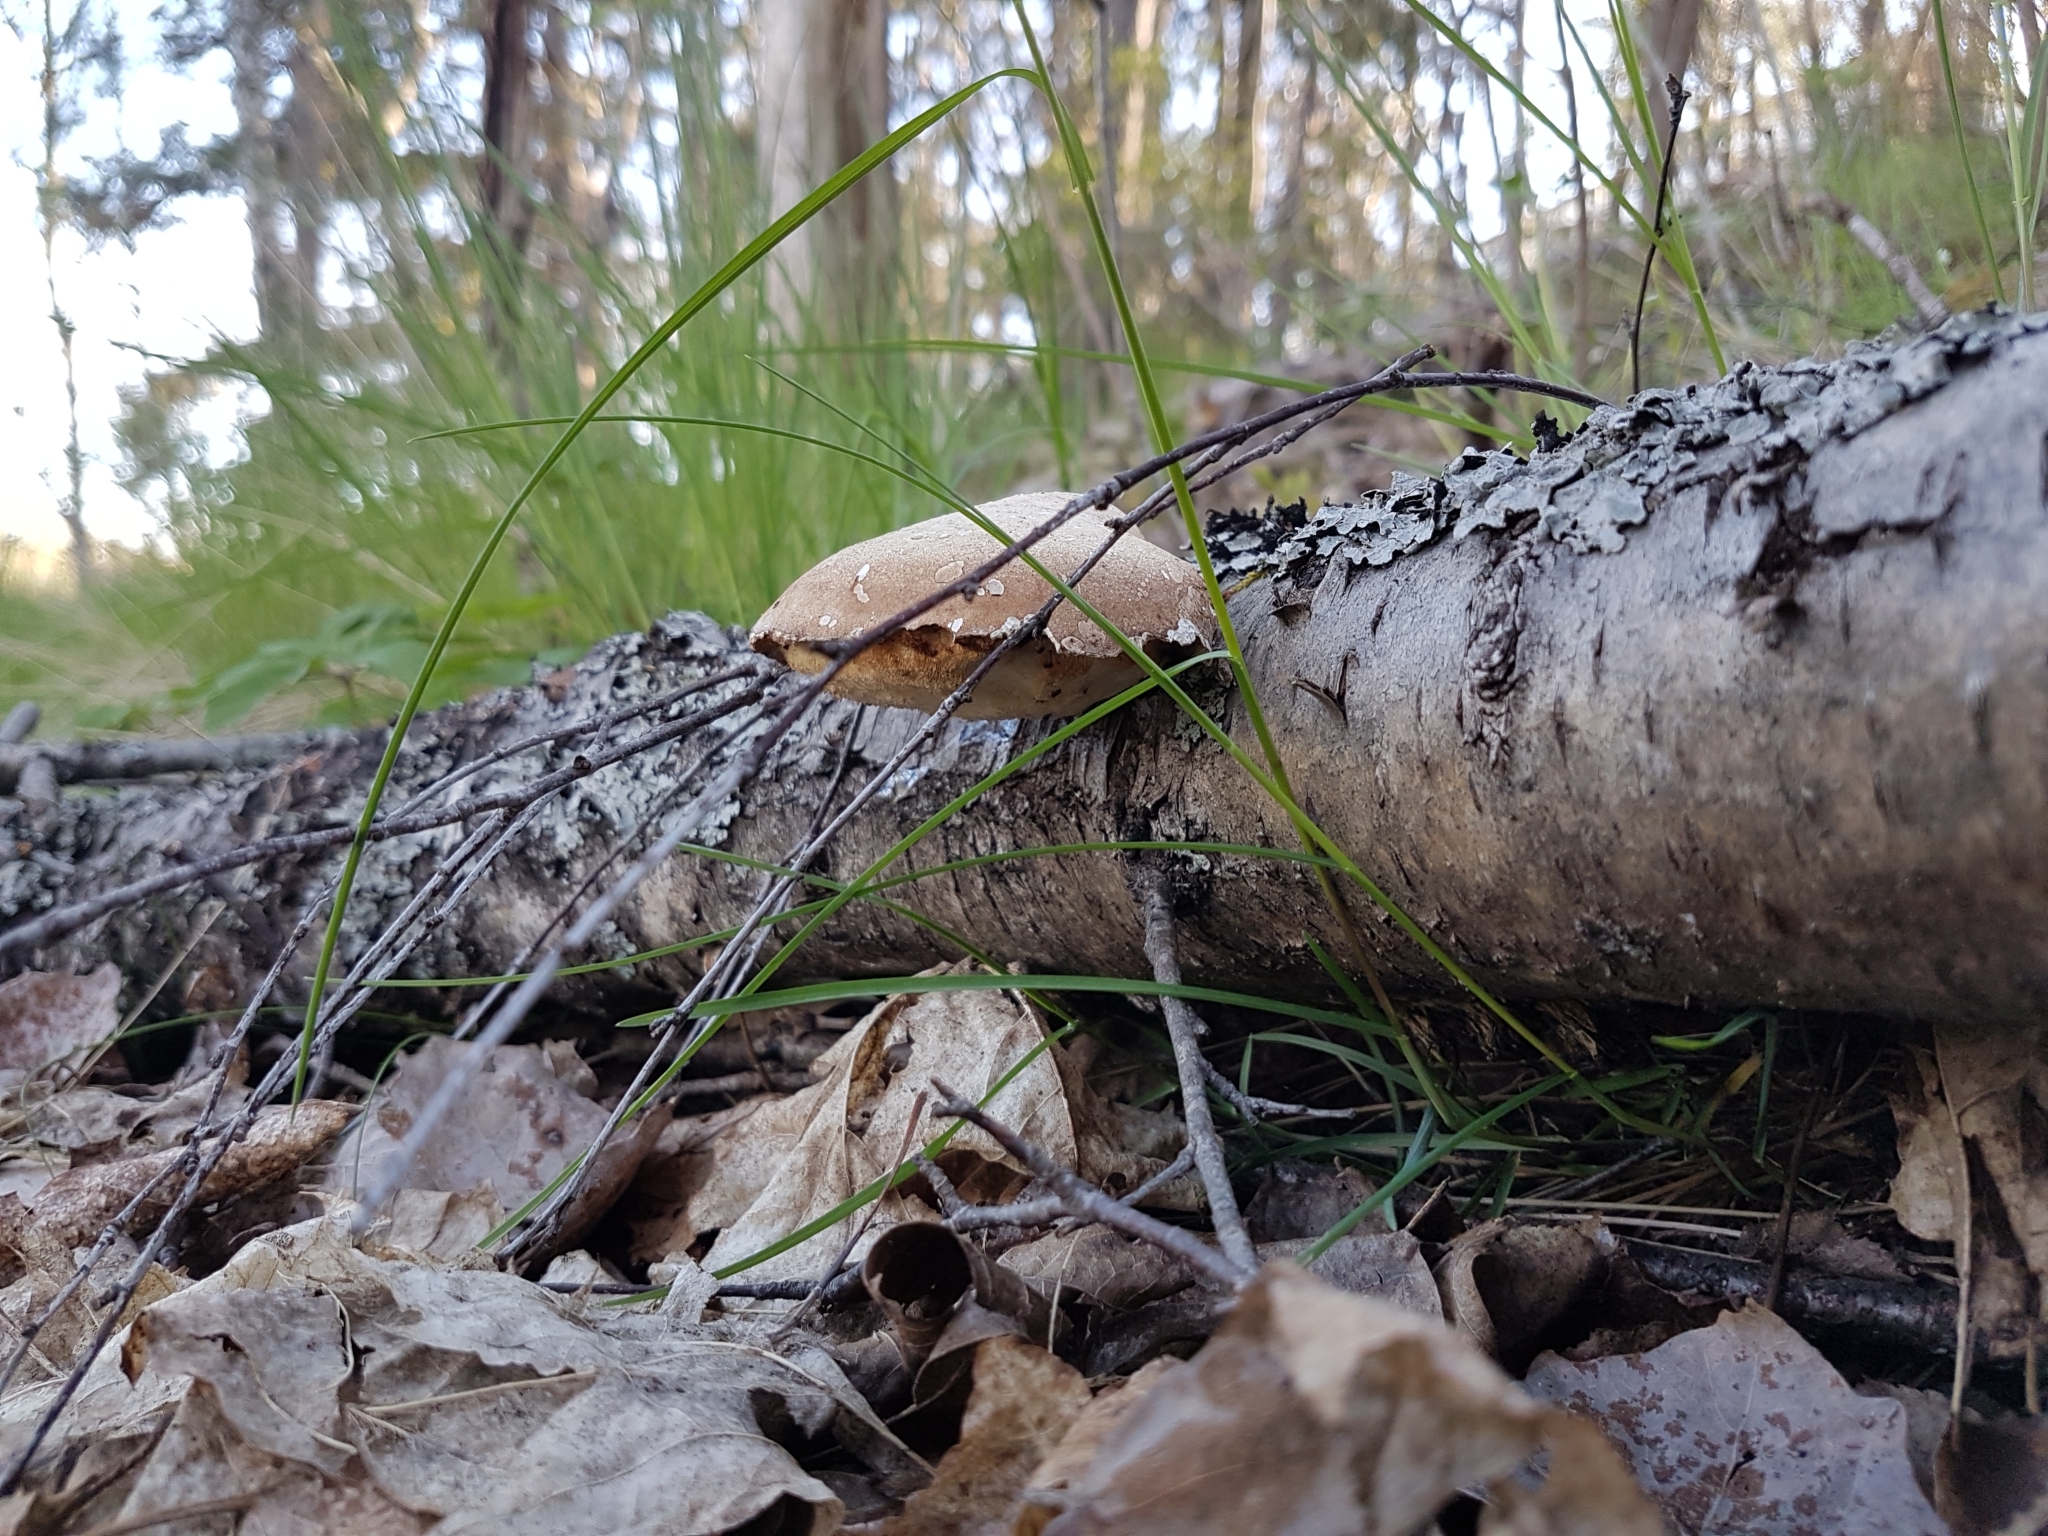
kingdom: Fungi
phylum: Basidiomycota
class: Agaricomycetes
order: Polyporales
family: Fomitopsidaceae
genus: Fomitopsis
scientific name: Fomitopsis betulina
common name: Birch polypore
